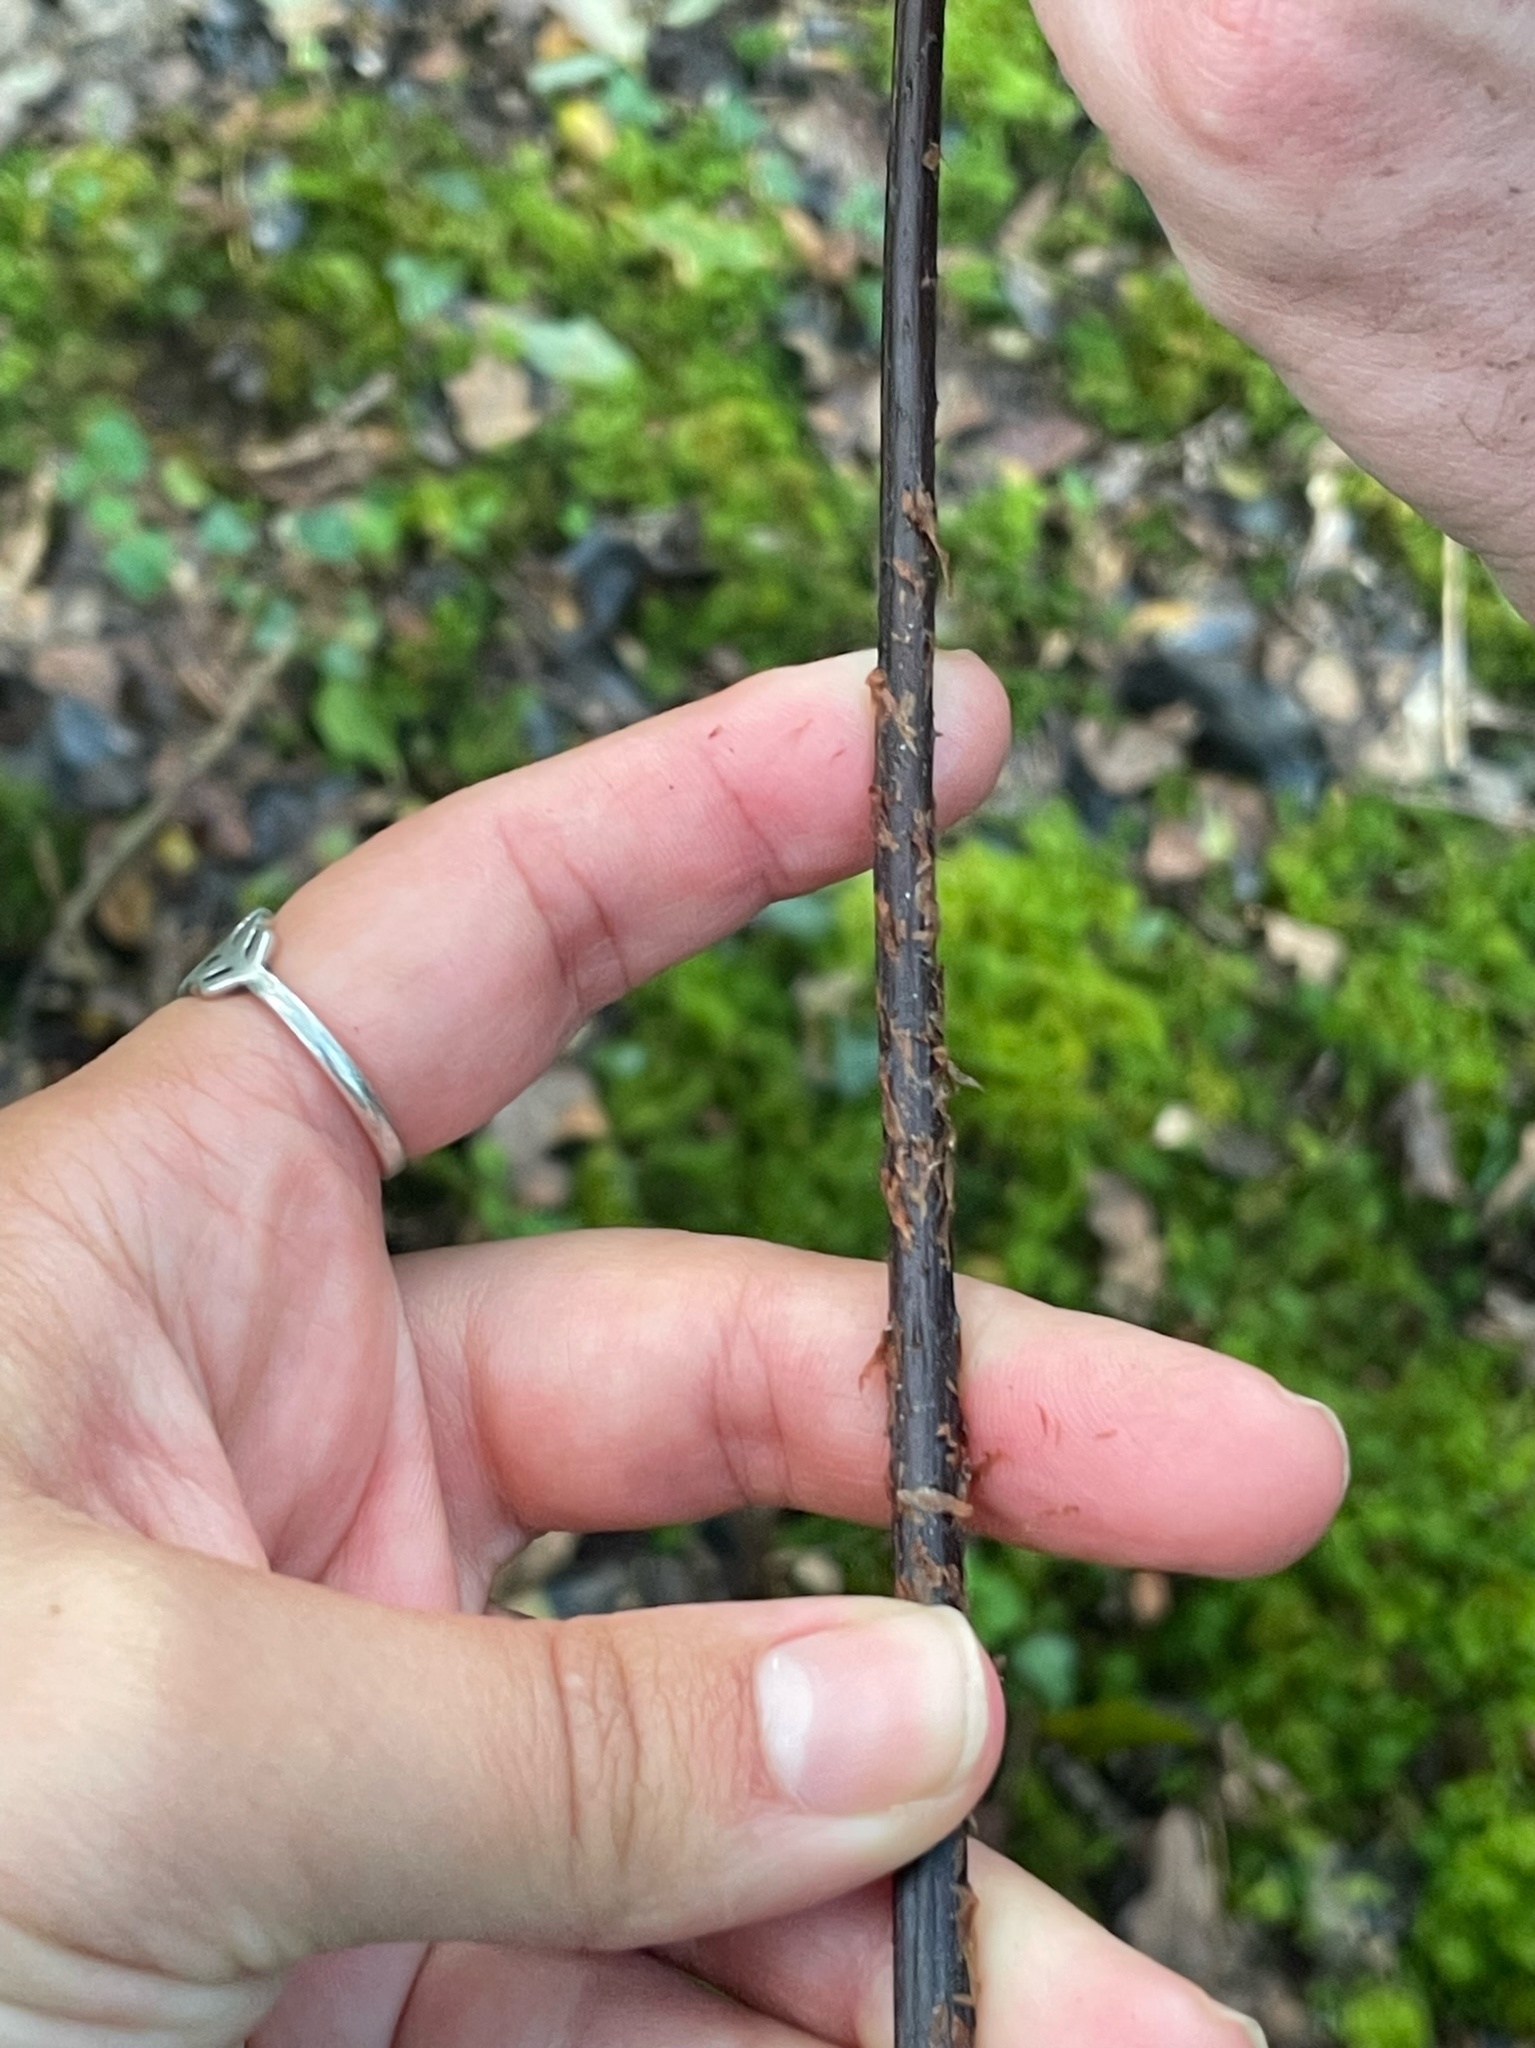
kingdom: Plantae
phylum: Tracheophyta
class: Polypodiopsida
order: Polypodiales
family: Dryopteridaceae
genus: Dryopteris
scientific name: Dryopteris aemula
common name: Hay-scented buckler-fern
